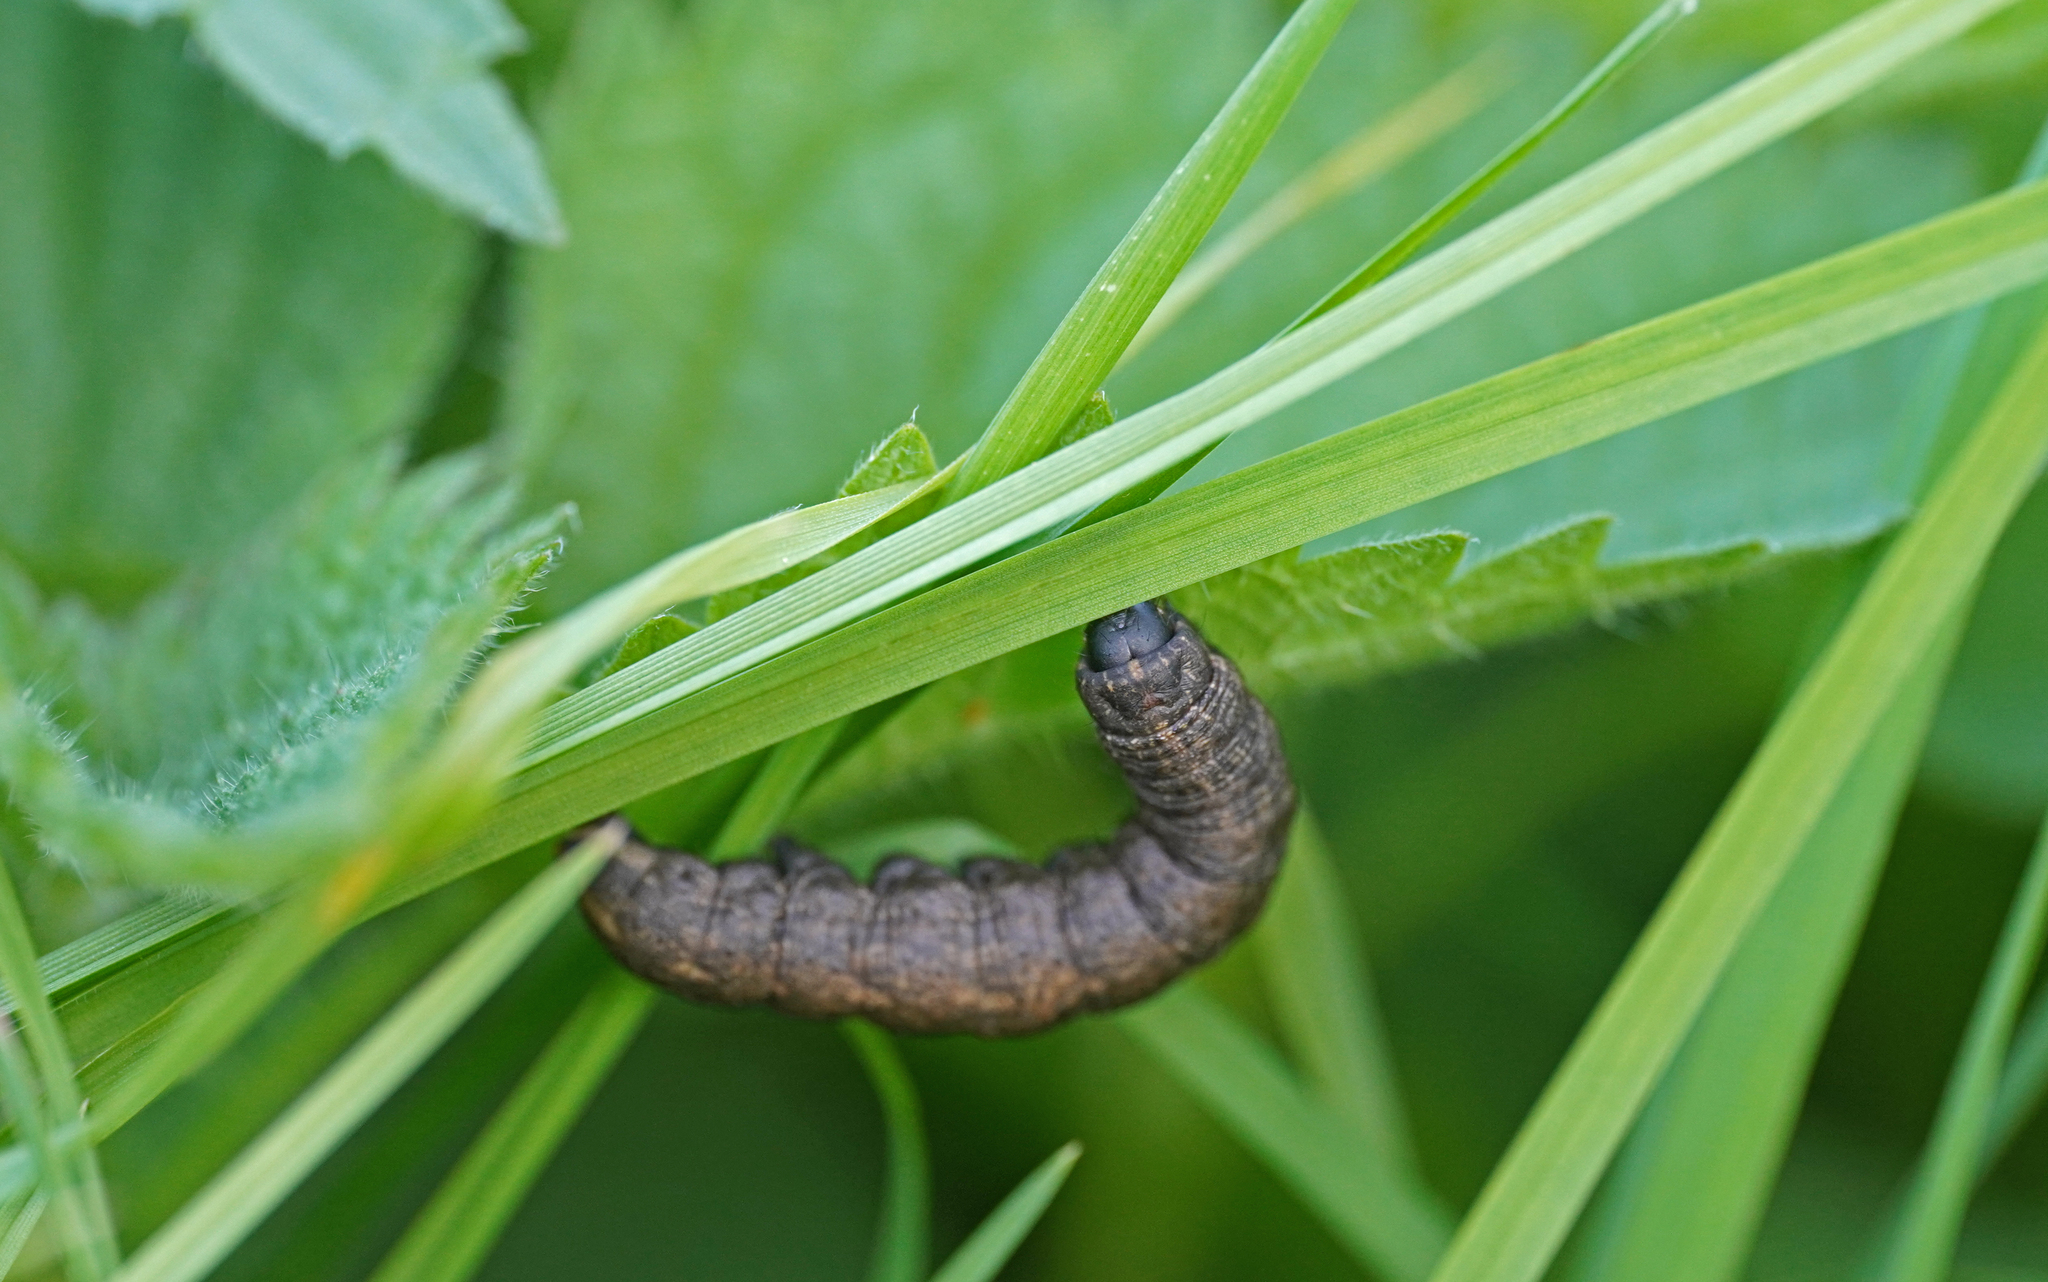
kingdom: Animalia
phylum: Arthropoda
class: Insecta
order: Lepidoptera
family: Noctuidae
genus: Cucullia
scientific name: Cucullia umbratica
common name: Shark
